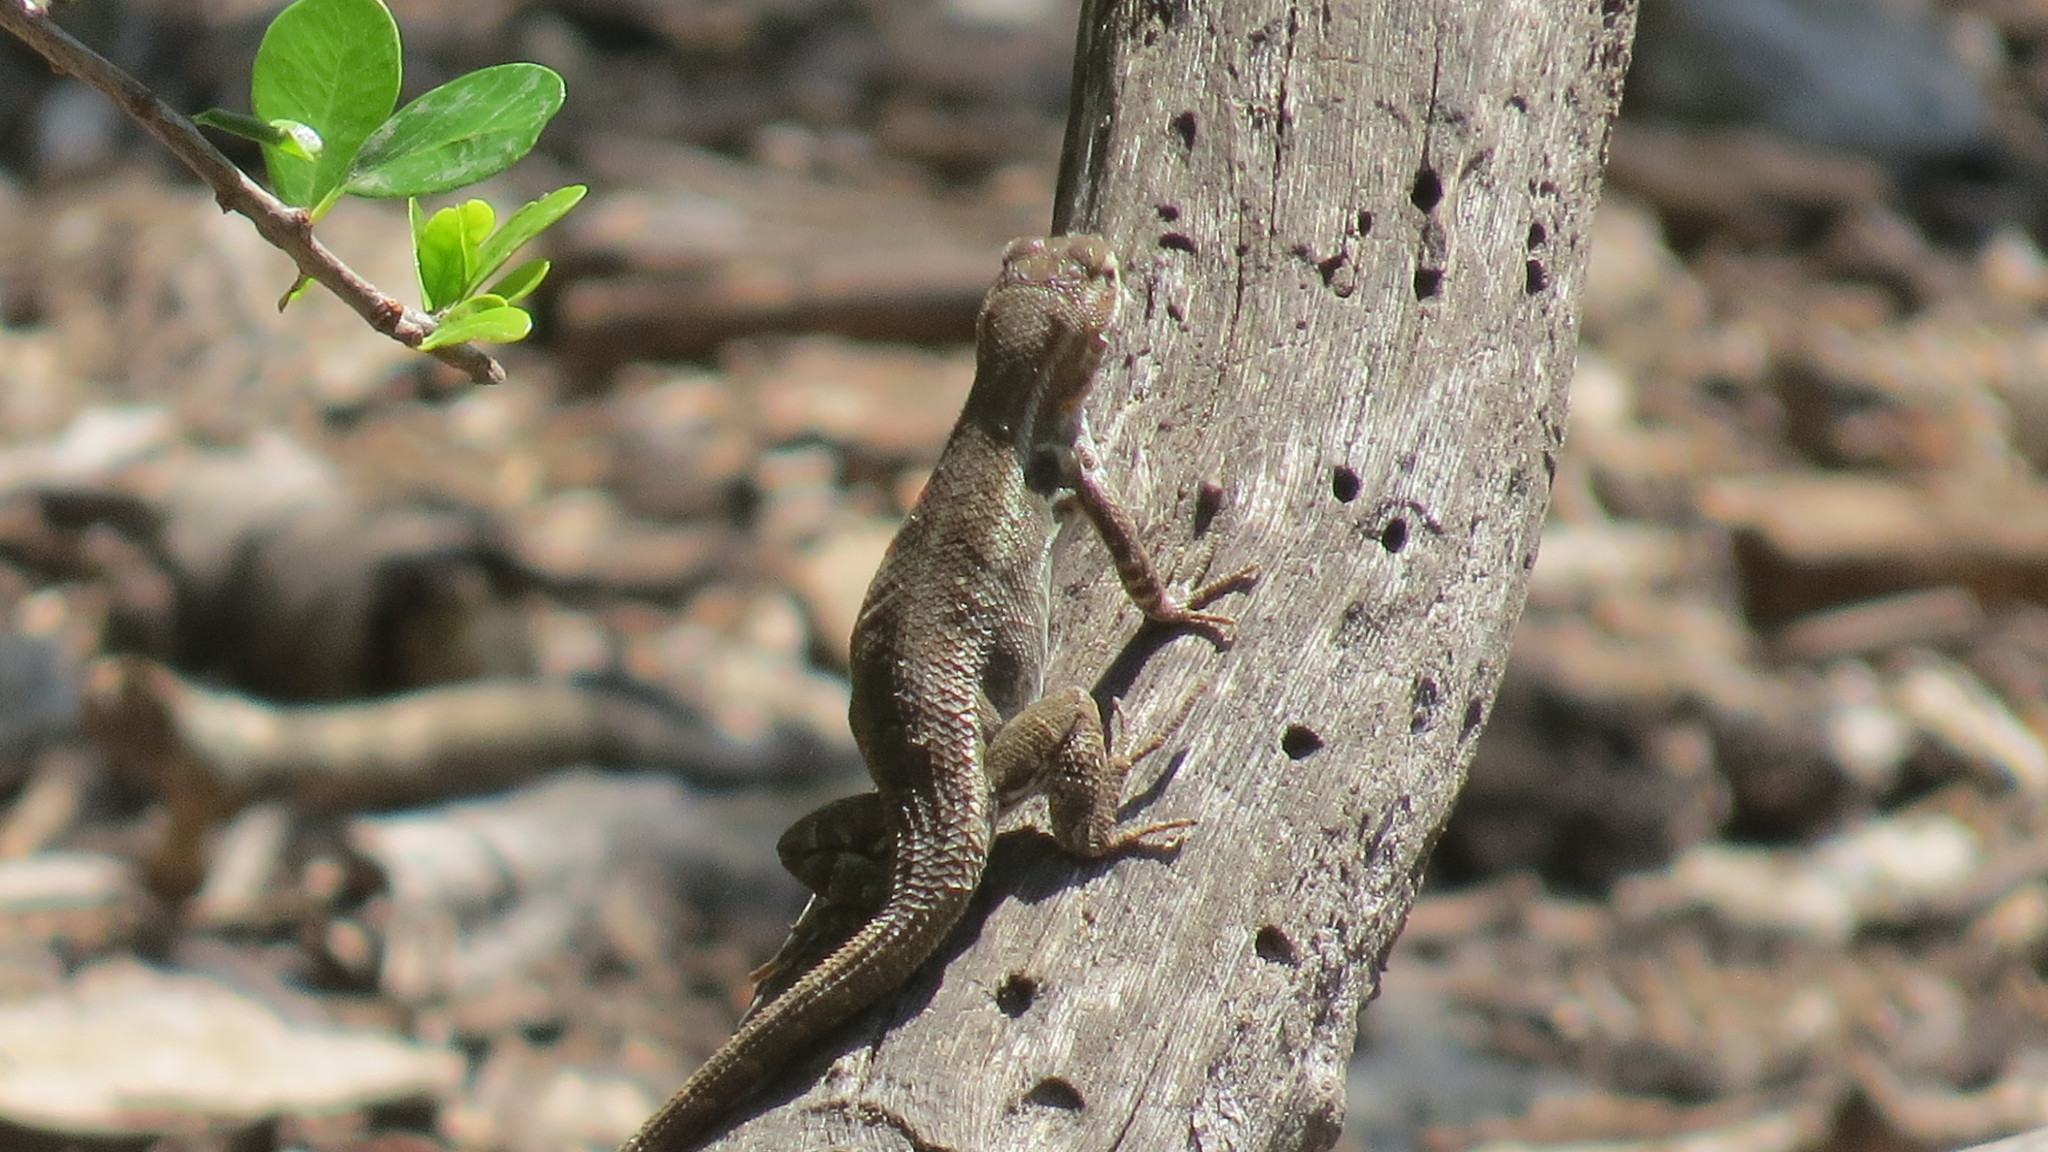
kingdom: Animalia
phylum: Chordata
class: Squamata
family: Phrynosomatidae
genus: Sceloporus
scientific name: Sceloporus variabilis
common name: Rosebelly lizard
